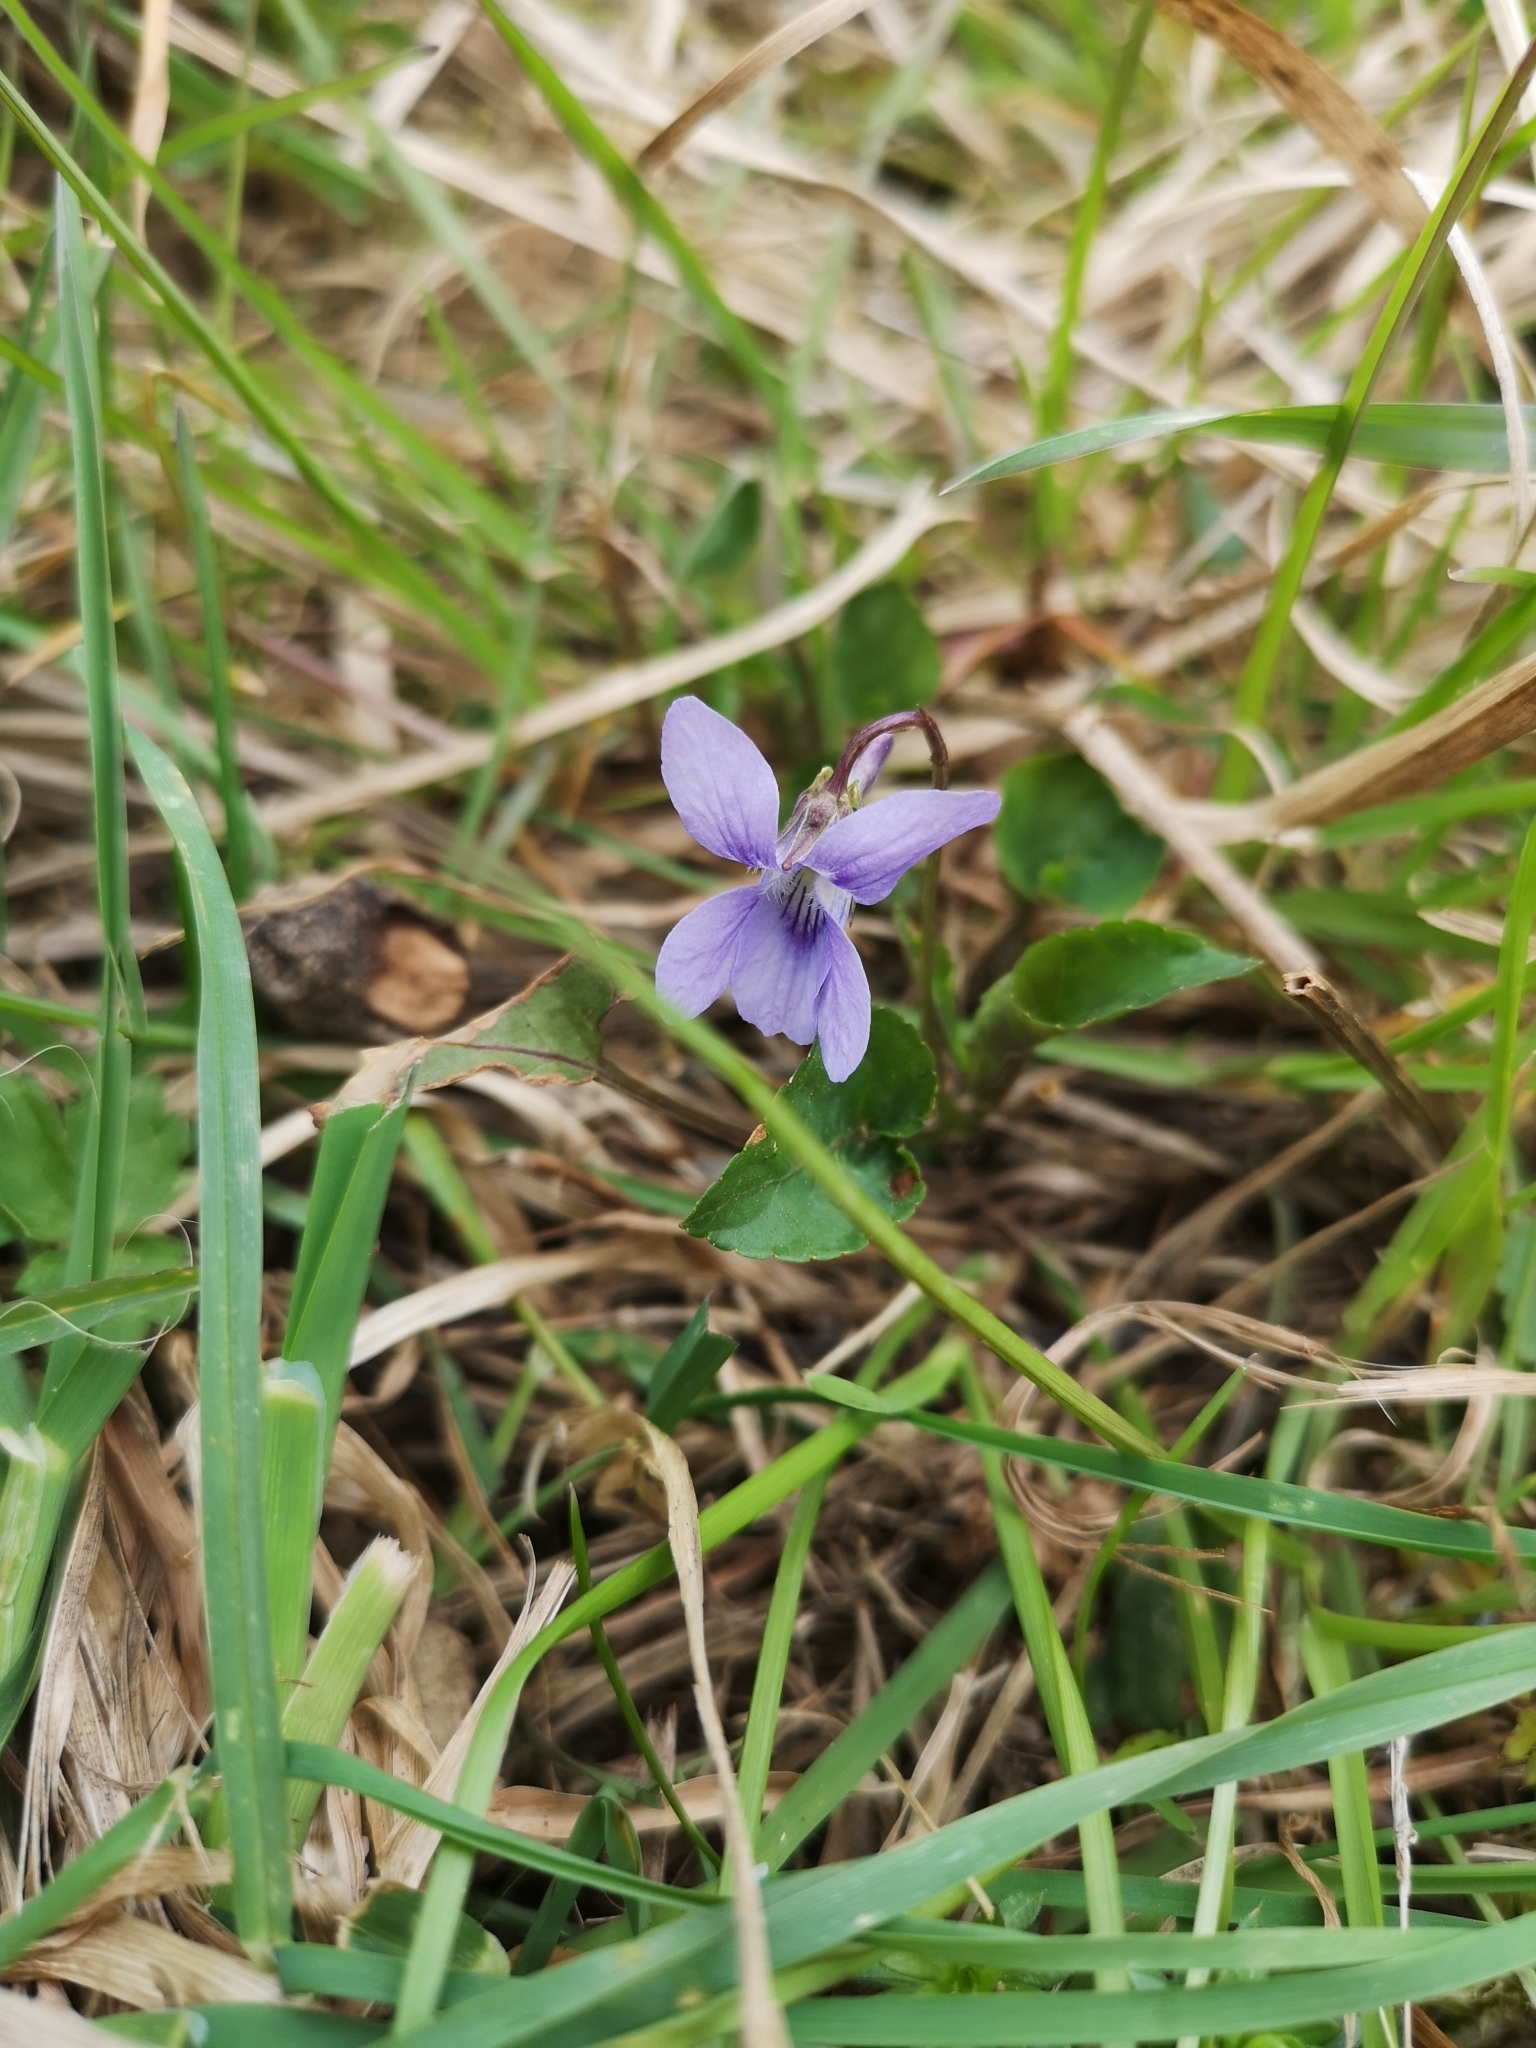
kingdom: Plantae
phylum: Tracheophyta
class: Magnoliopsida
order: Malpighiales
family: Violaceae
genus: Viola
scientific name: Viola reichenbachiana
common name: Early dog-violet
